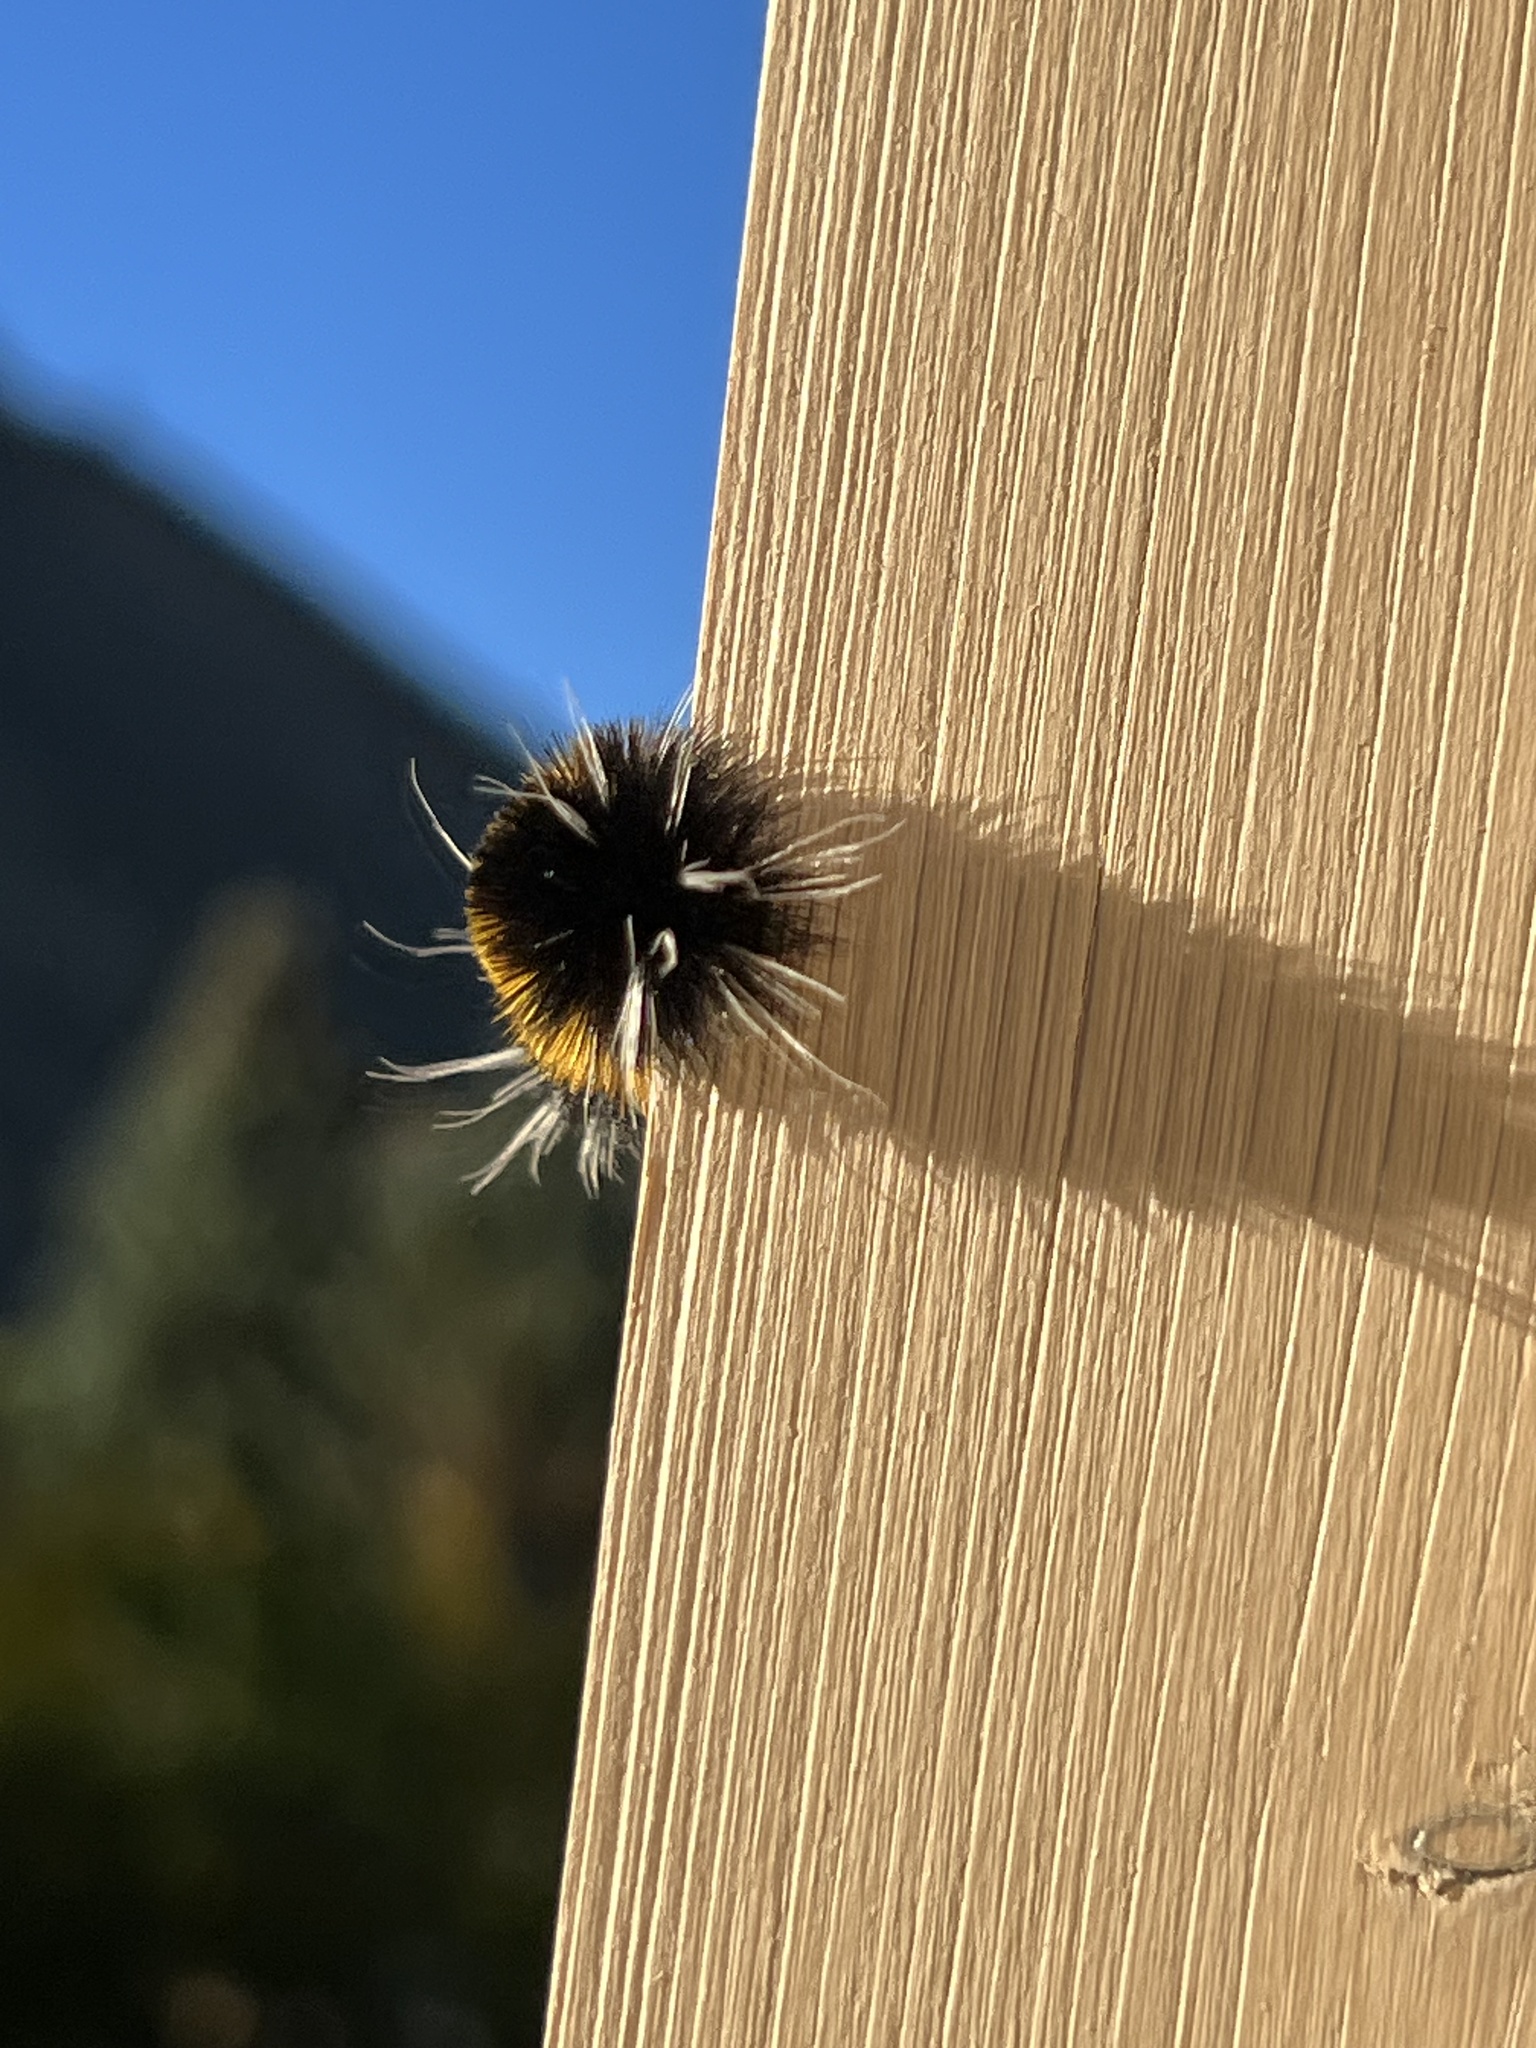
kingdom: Animalia
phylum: Arthropoda
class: Insecta
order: Lepidoptera
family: Erebidae
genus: Lophocampa
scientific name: Lophocampa maculata
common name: Spotted tussock moth
